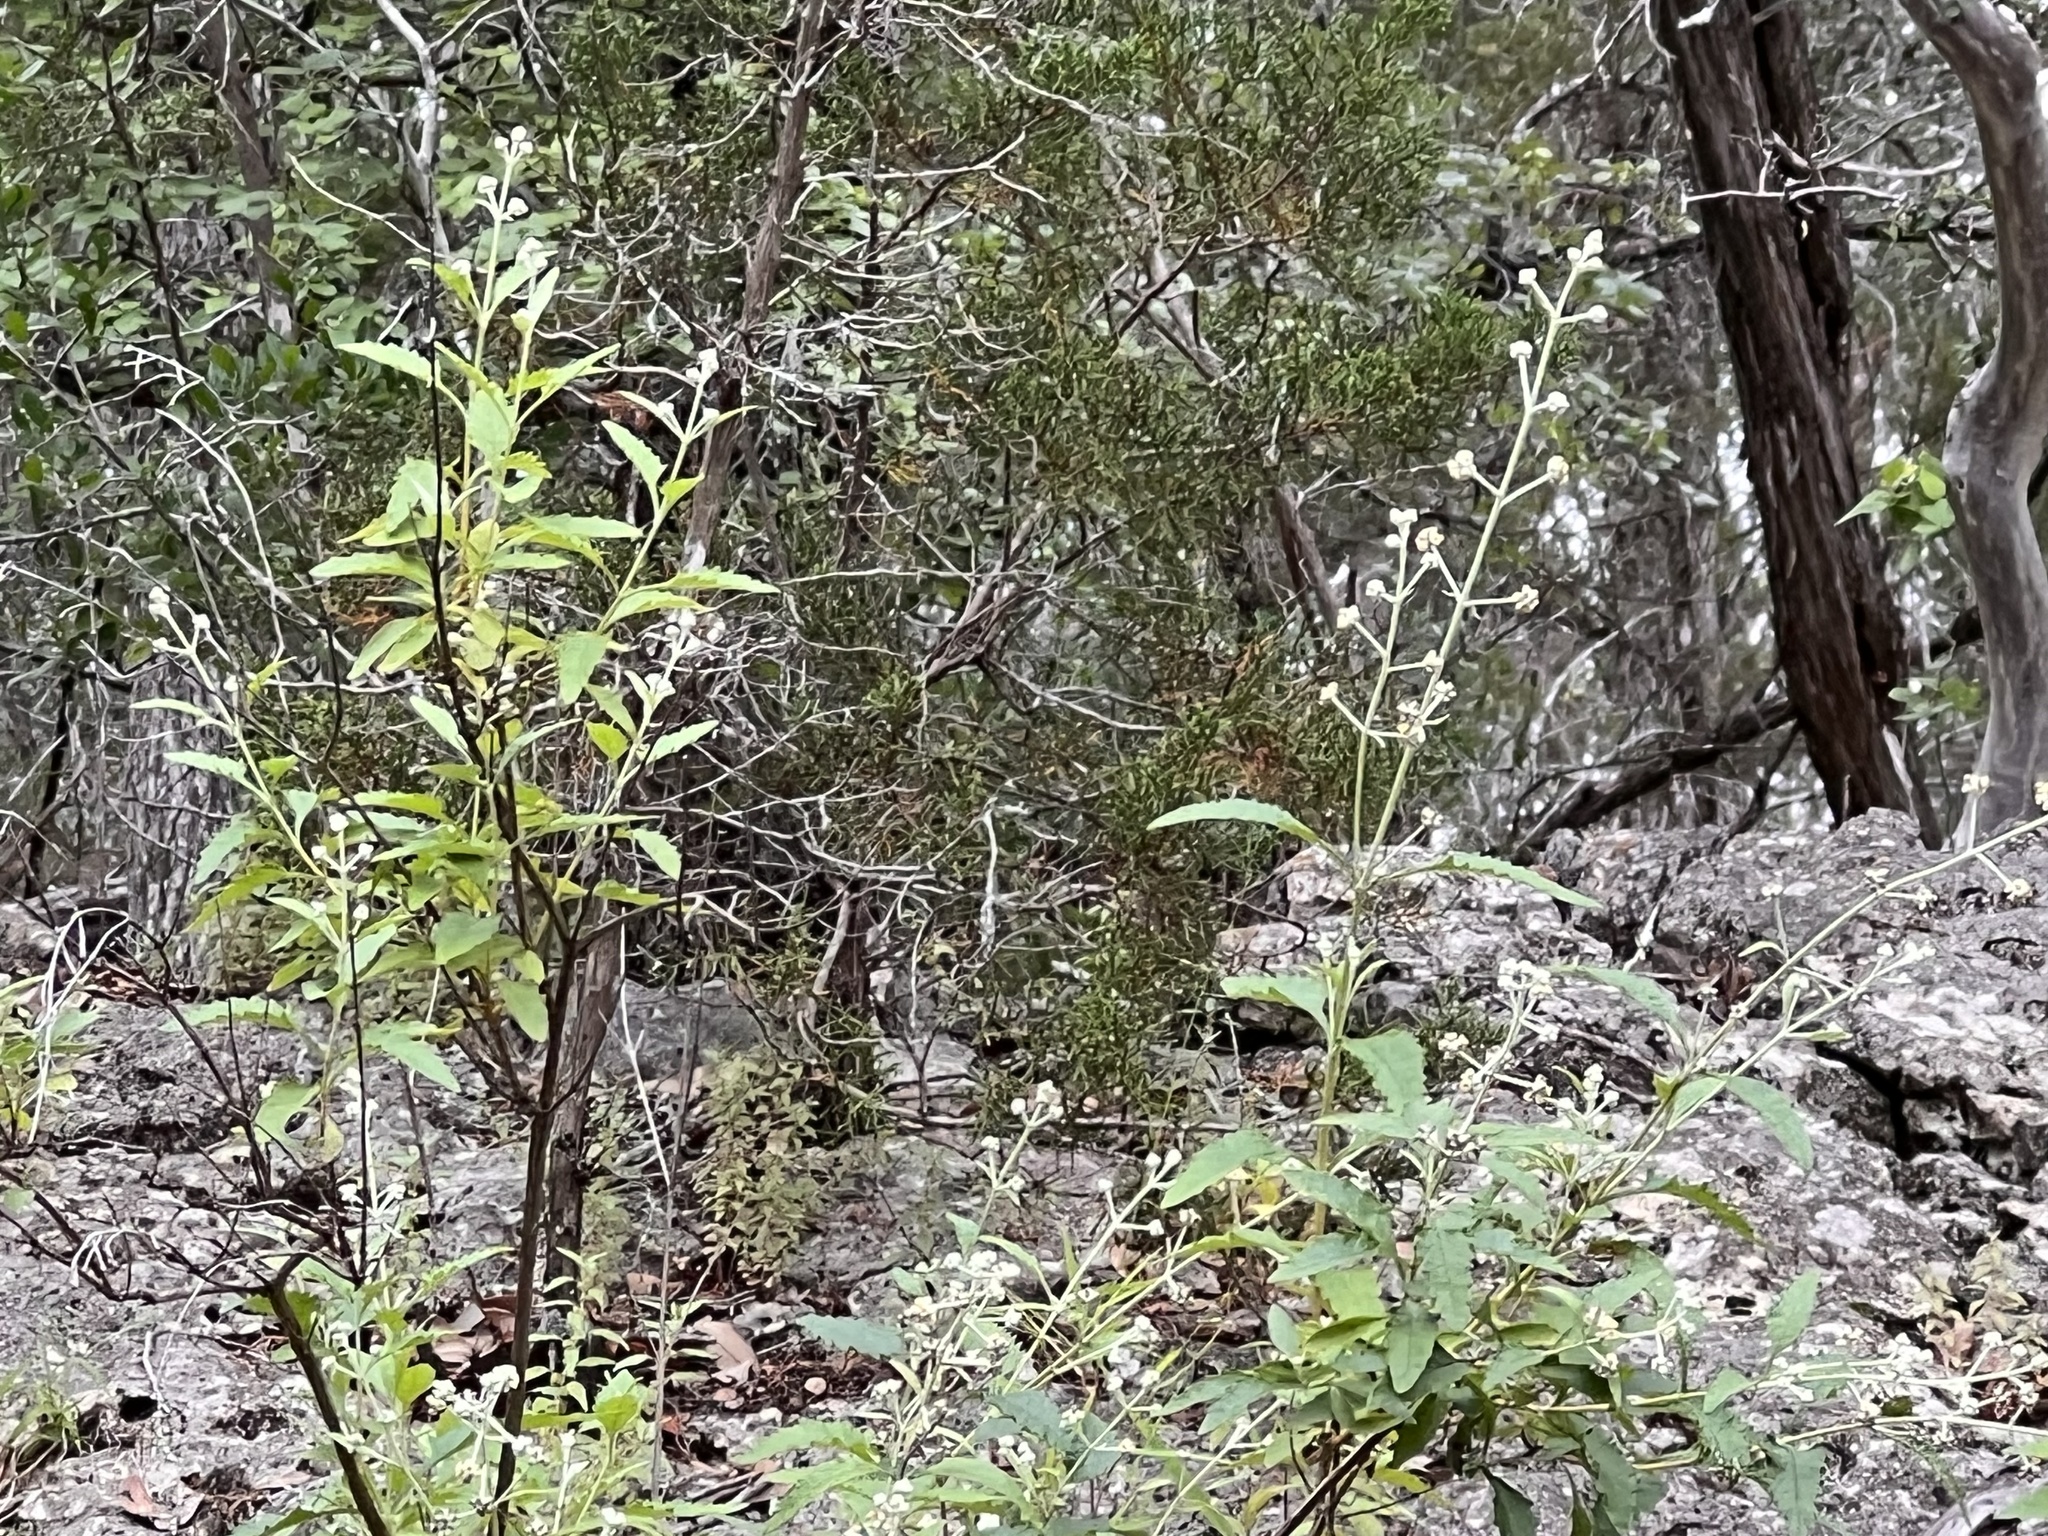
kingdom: Plantae
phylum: Tracheophyta
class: Magnoliopsida
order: Lamiales
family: Scrophulariaceae
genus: Buddleja
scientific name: Buddleja racemosa
